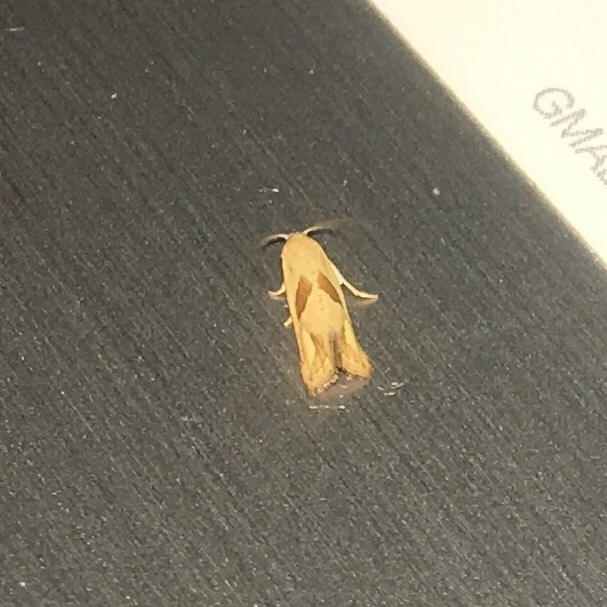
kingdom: Animalia
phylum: Arthropoda
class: Insecta
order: Lepidoptera
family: Tortricidae
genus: Eugnosta
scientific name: Eugnosta bimaculana
